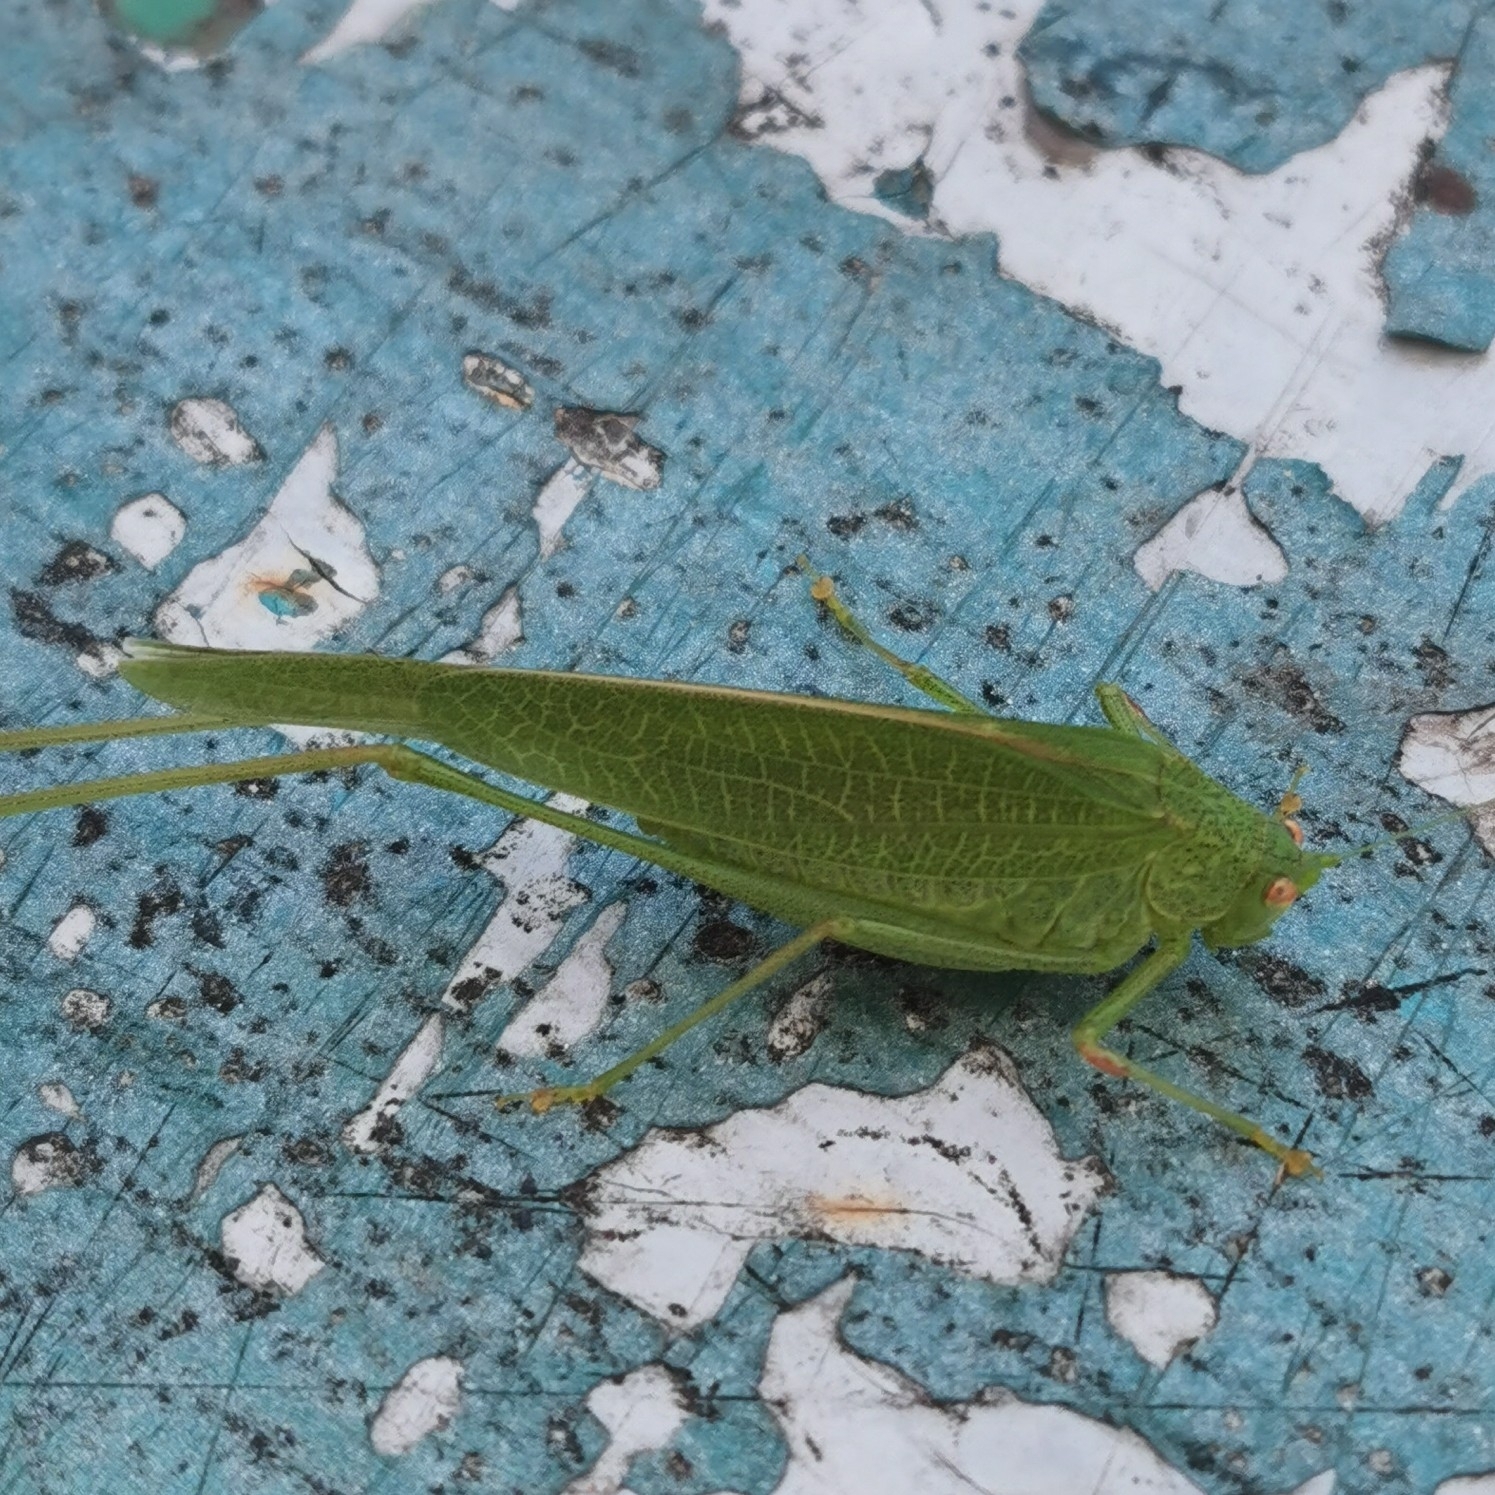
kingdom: Animalia
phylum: Arthropoda
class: Insecta
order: Orthoptera
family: Tettigoniidae
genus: Phaneroptera
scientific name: Phaneroptera nana
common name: Southern sickle bush-cricket
